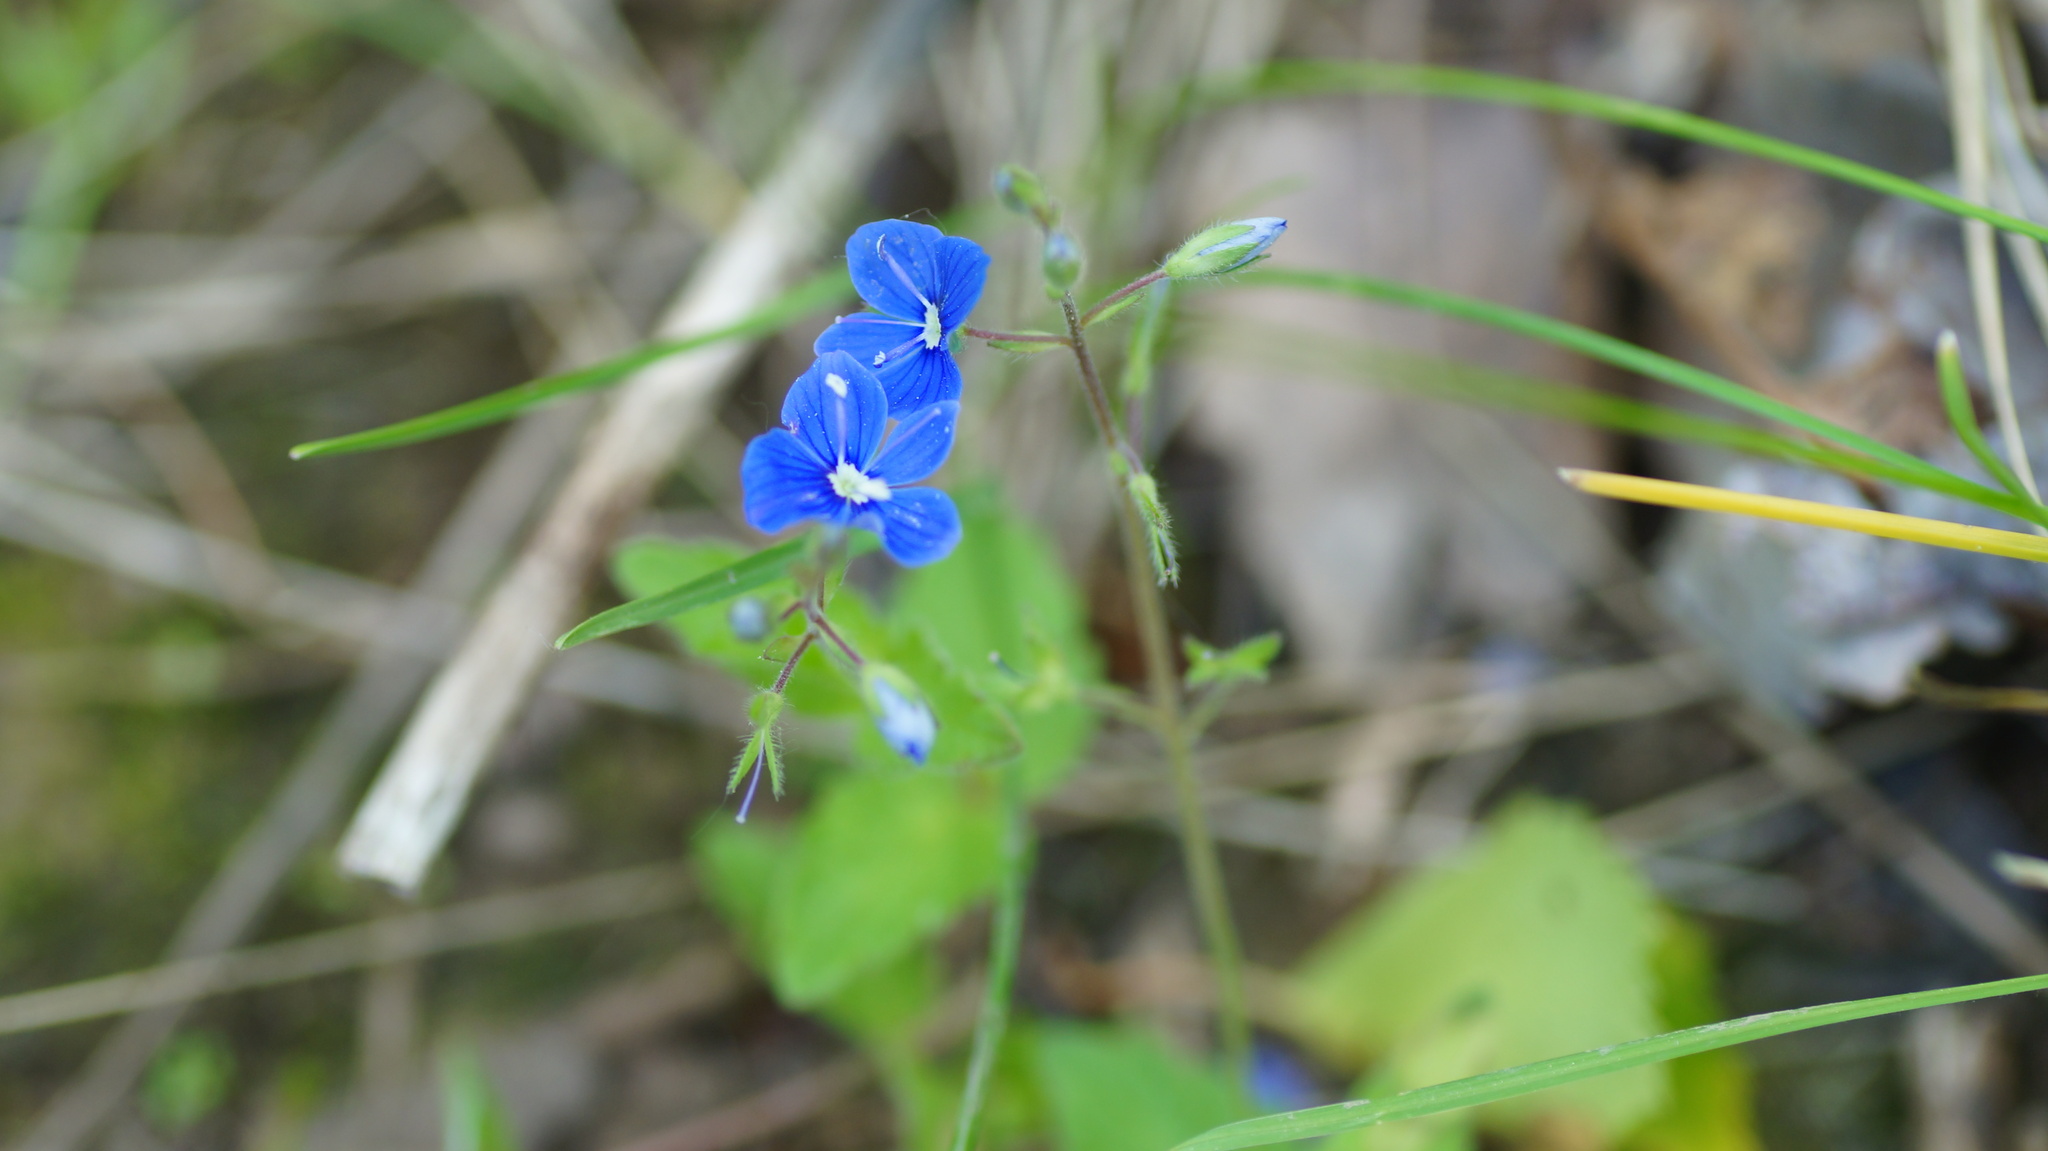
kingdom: Plantae
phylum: Tracheophyta
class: Magnoliopsida
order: Lamiales
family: Plantaginaceae
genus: Veronica
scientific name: Veronica chamaedrys
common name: Germander speedwell
